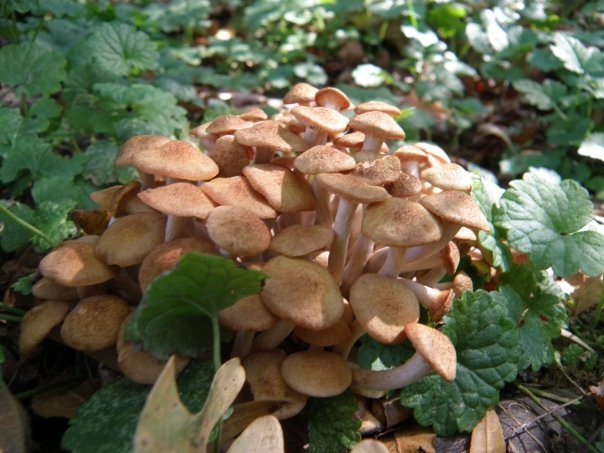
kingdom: Fungi
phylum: Basidiomycota
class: Agaricomycetes
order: Agaricales
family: Physalacriaceae
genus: Desarmillaria
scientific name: Desarmillaria caespitosa
